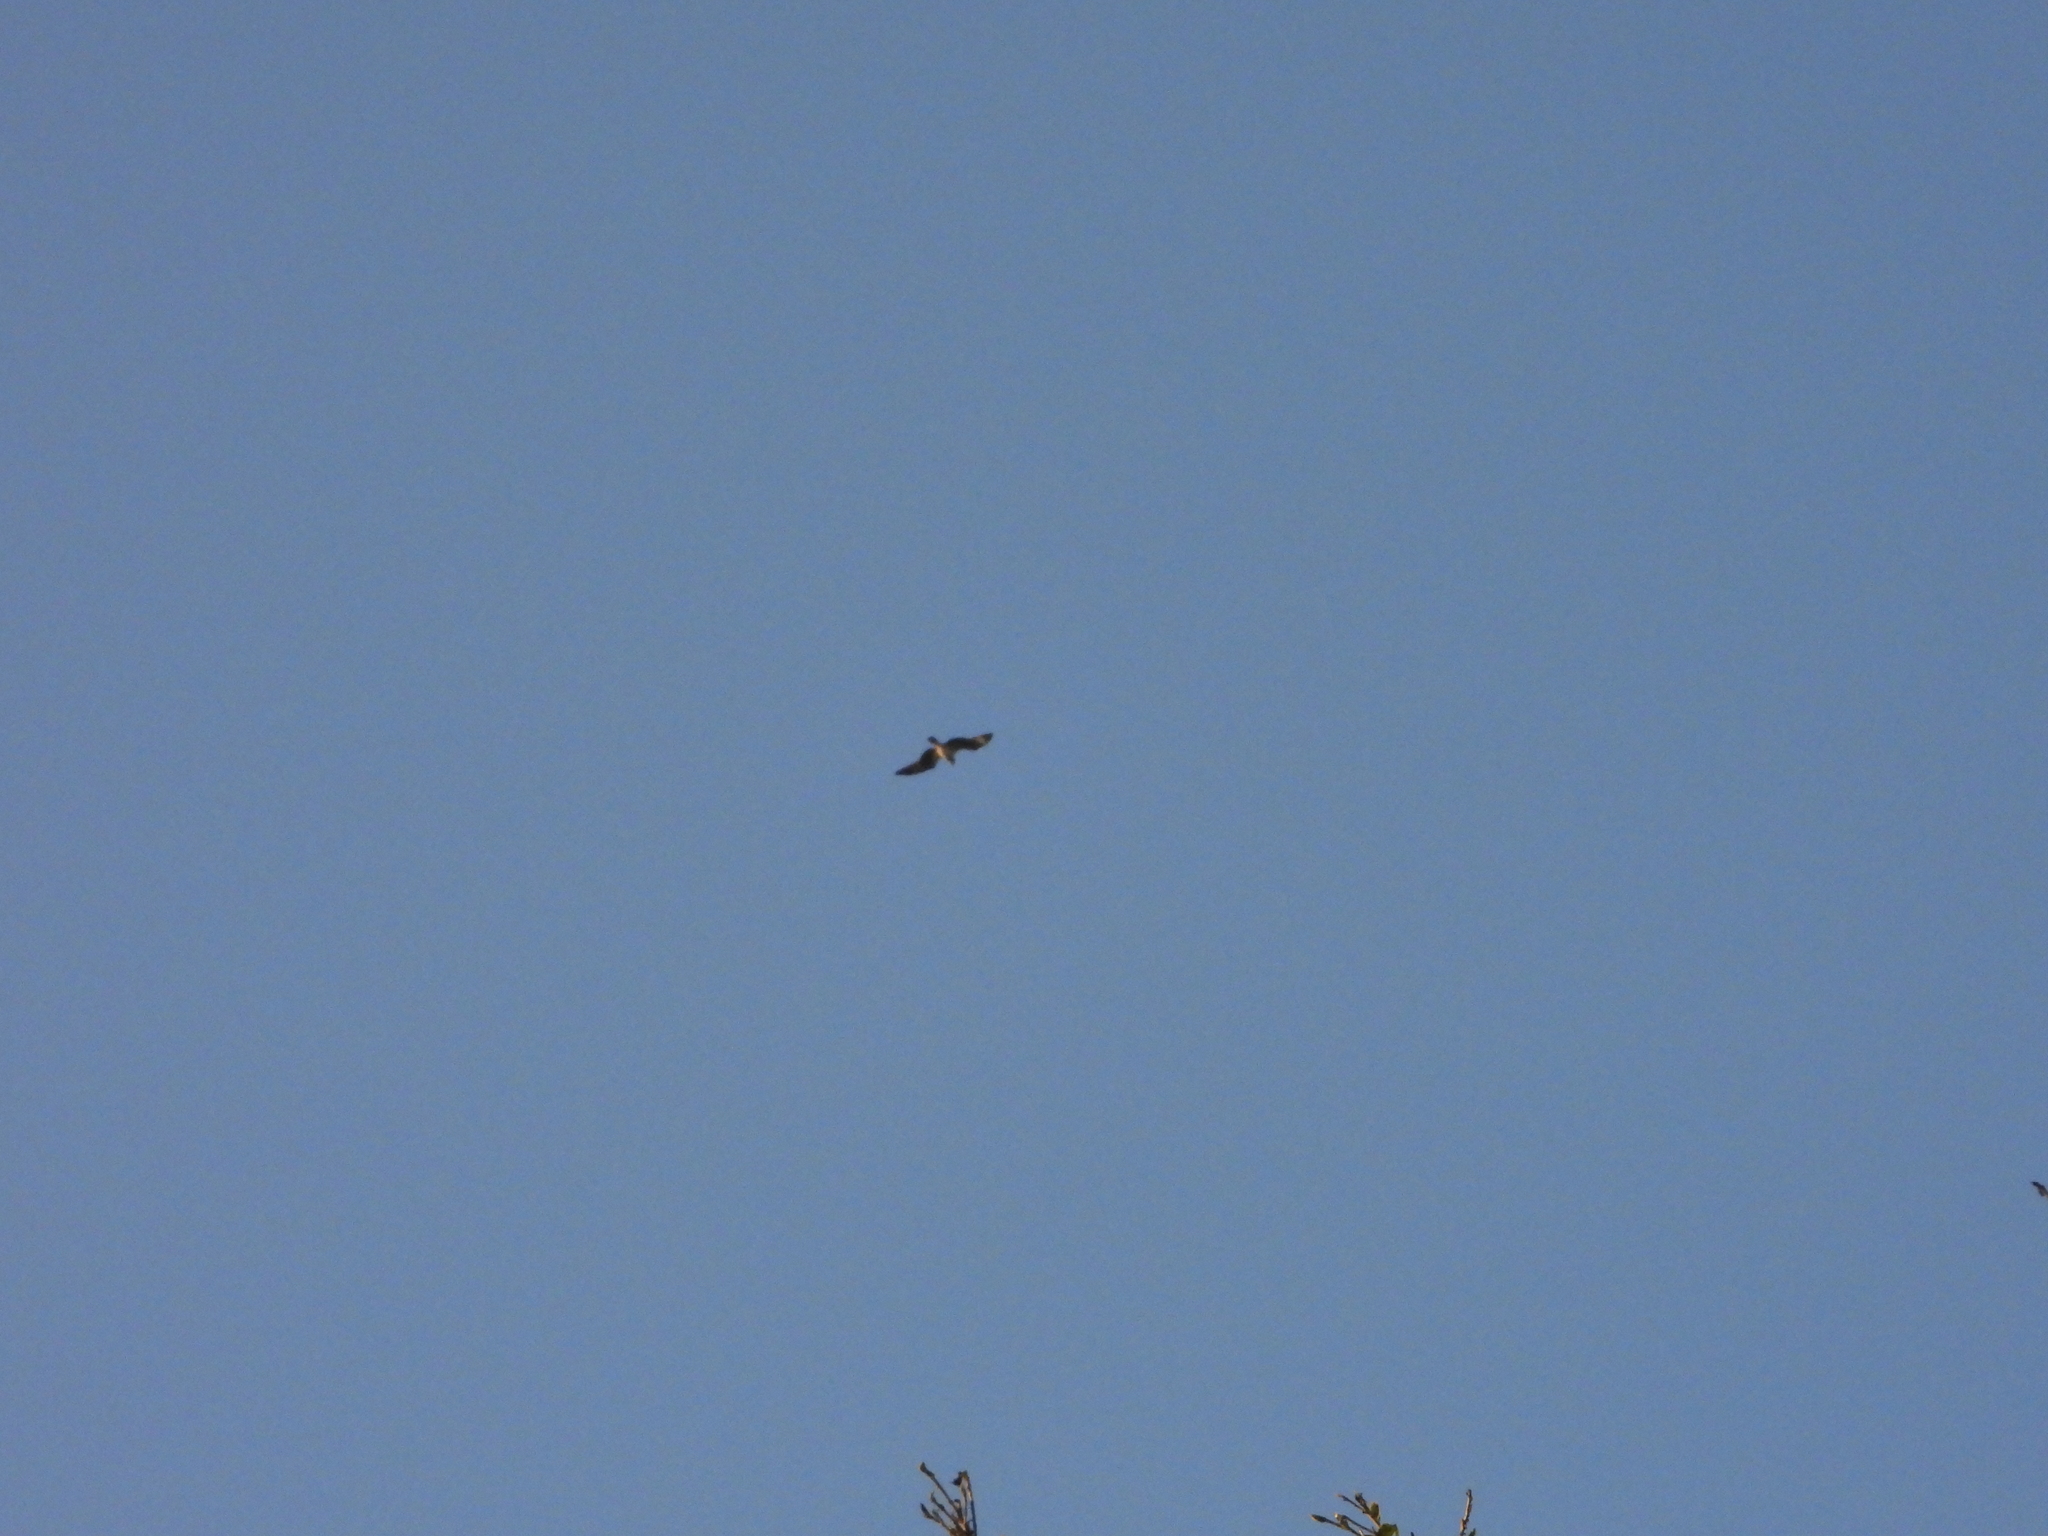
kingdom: Animalia
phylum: Chordata
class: Aves
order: Accipitriformes
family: Accipitridae
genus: Milvus
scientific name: Milvus migrans
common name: Black kite
